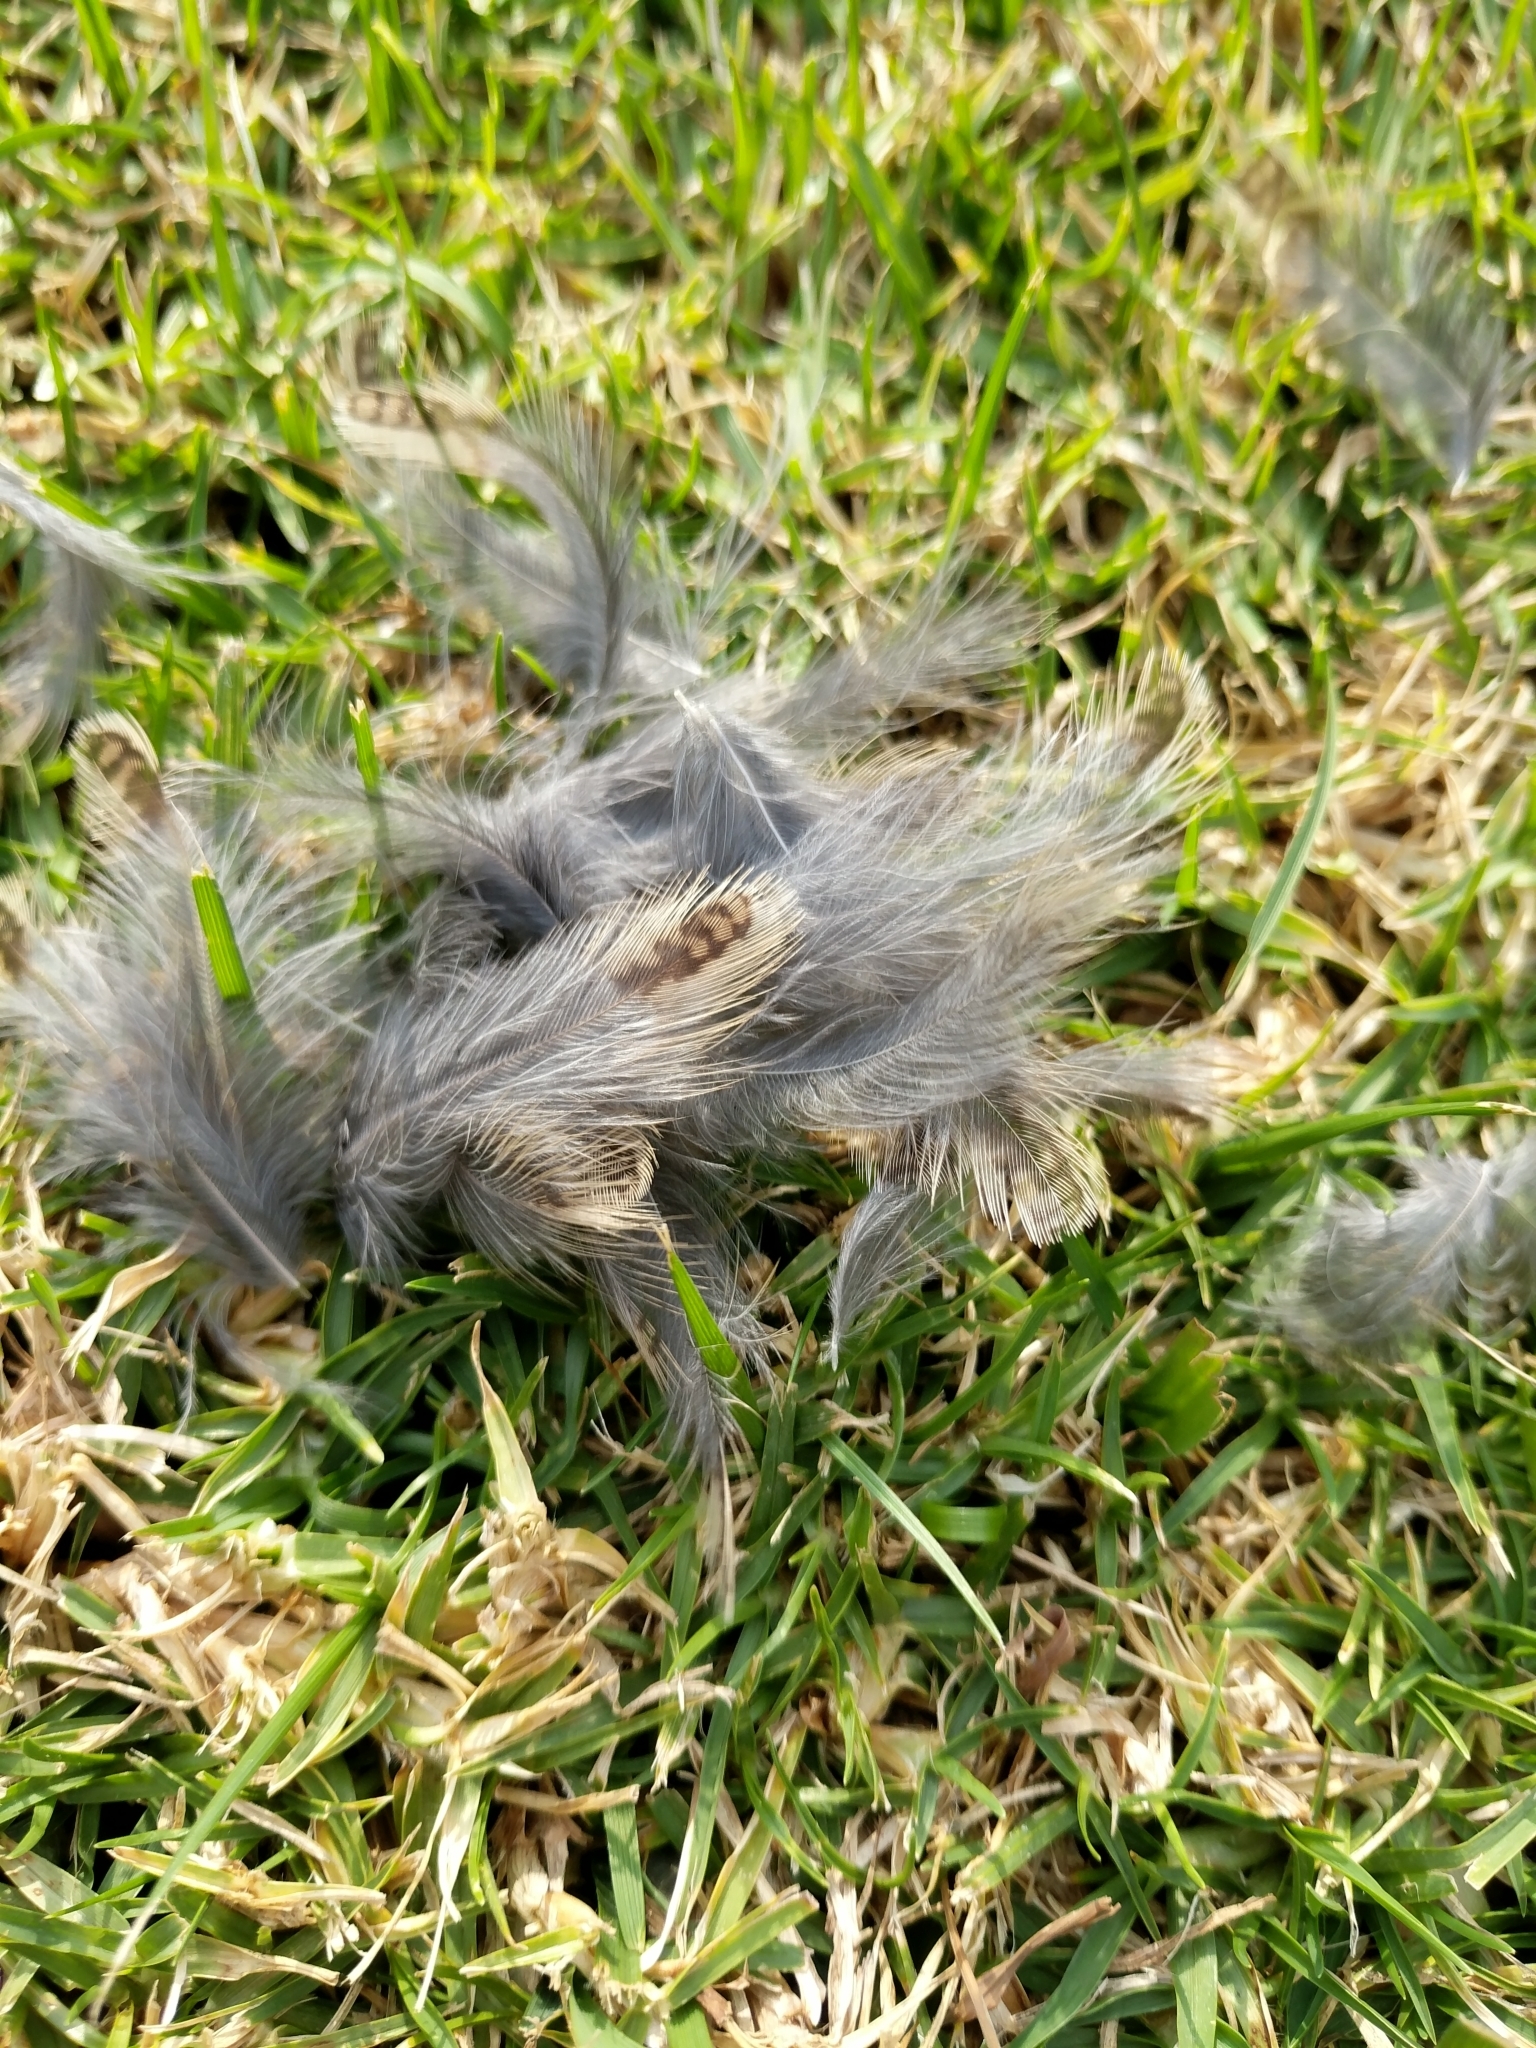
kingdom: Animalia
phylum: Chordata
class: Aves
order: Passeriformes
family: Icteridae
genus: Sturnella
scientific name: Sturnella neglecta
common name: Western meadowlark
